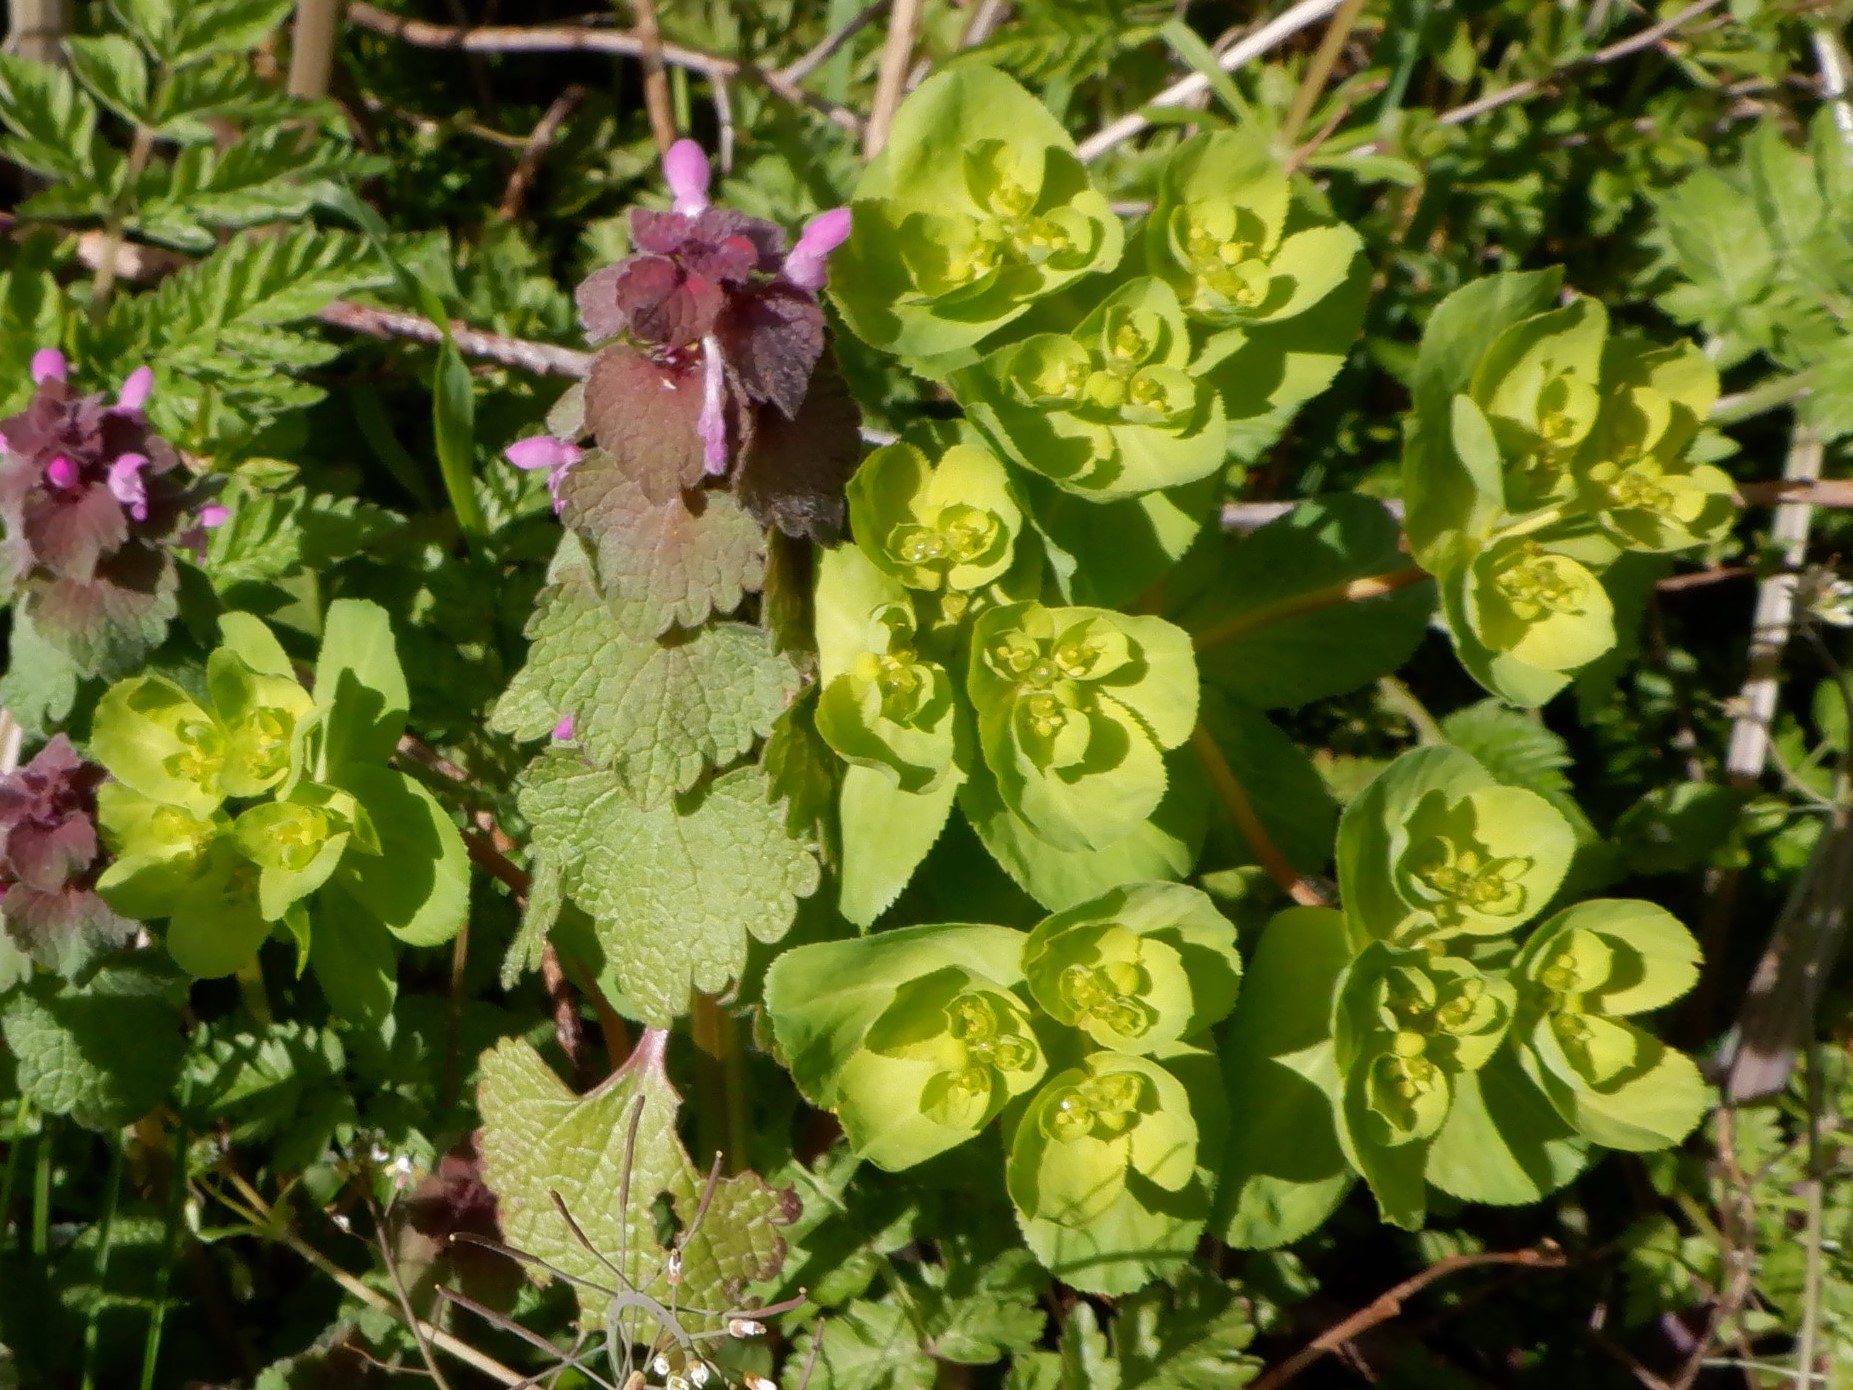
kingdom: Plantae
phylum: Tracheophyta
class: Magnoliopsida
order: Malpighiales
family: Euphorbiaceae
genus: Euphorbia
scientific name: Euphorbia helioscopia
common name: Sun spurge
